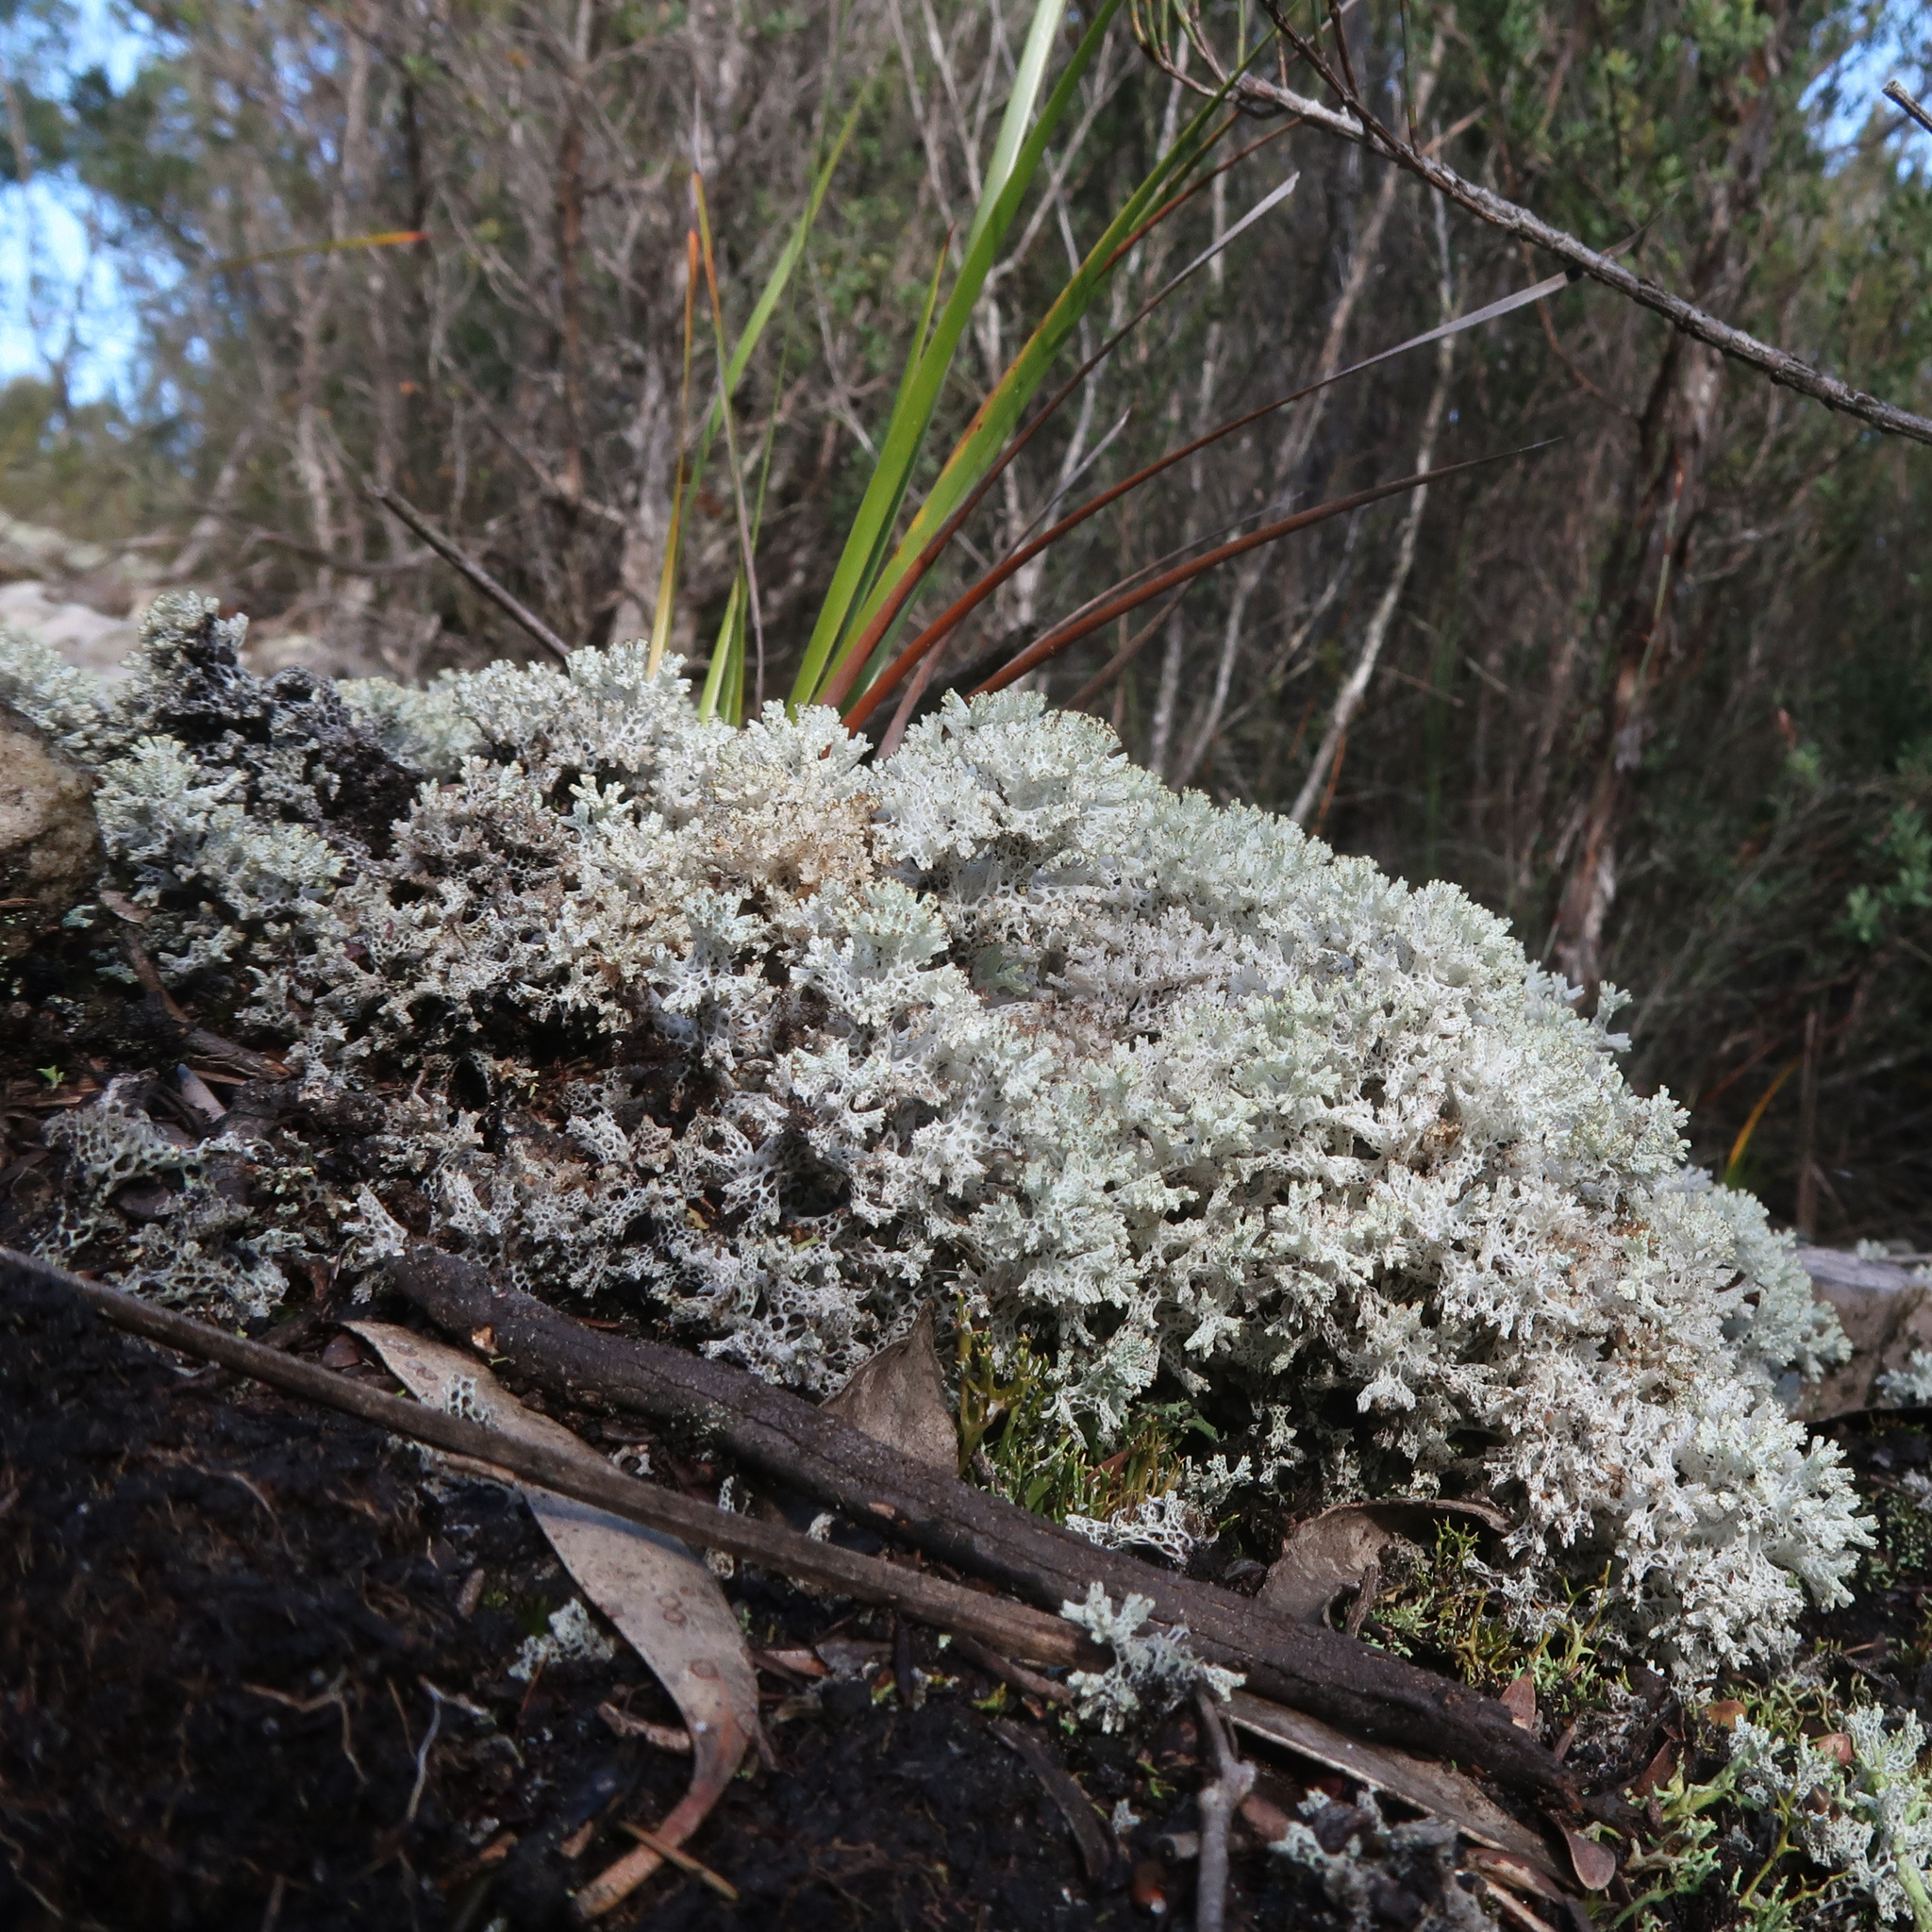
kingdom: Fungi
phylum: Ascomycota
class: Lecanoromycetes
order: Lecanorales
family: Cladoniaceae
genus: Pulchrocladia
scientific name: Pulchrocladia retipora
